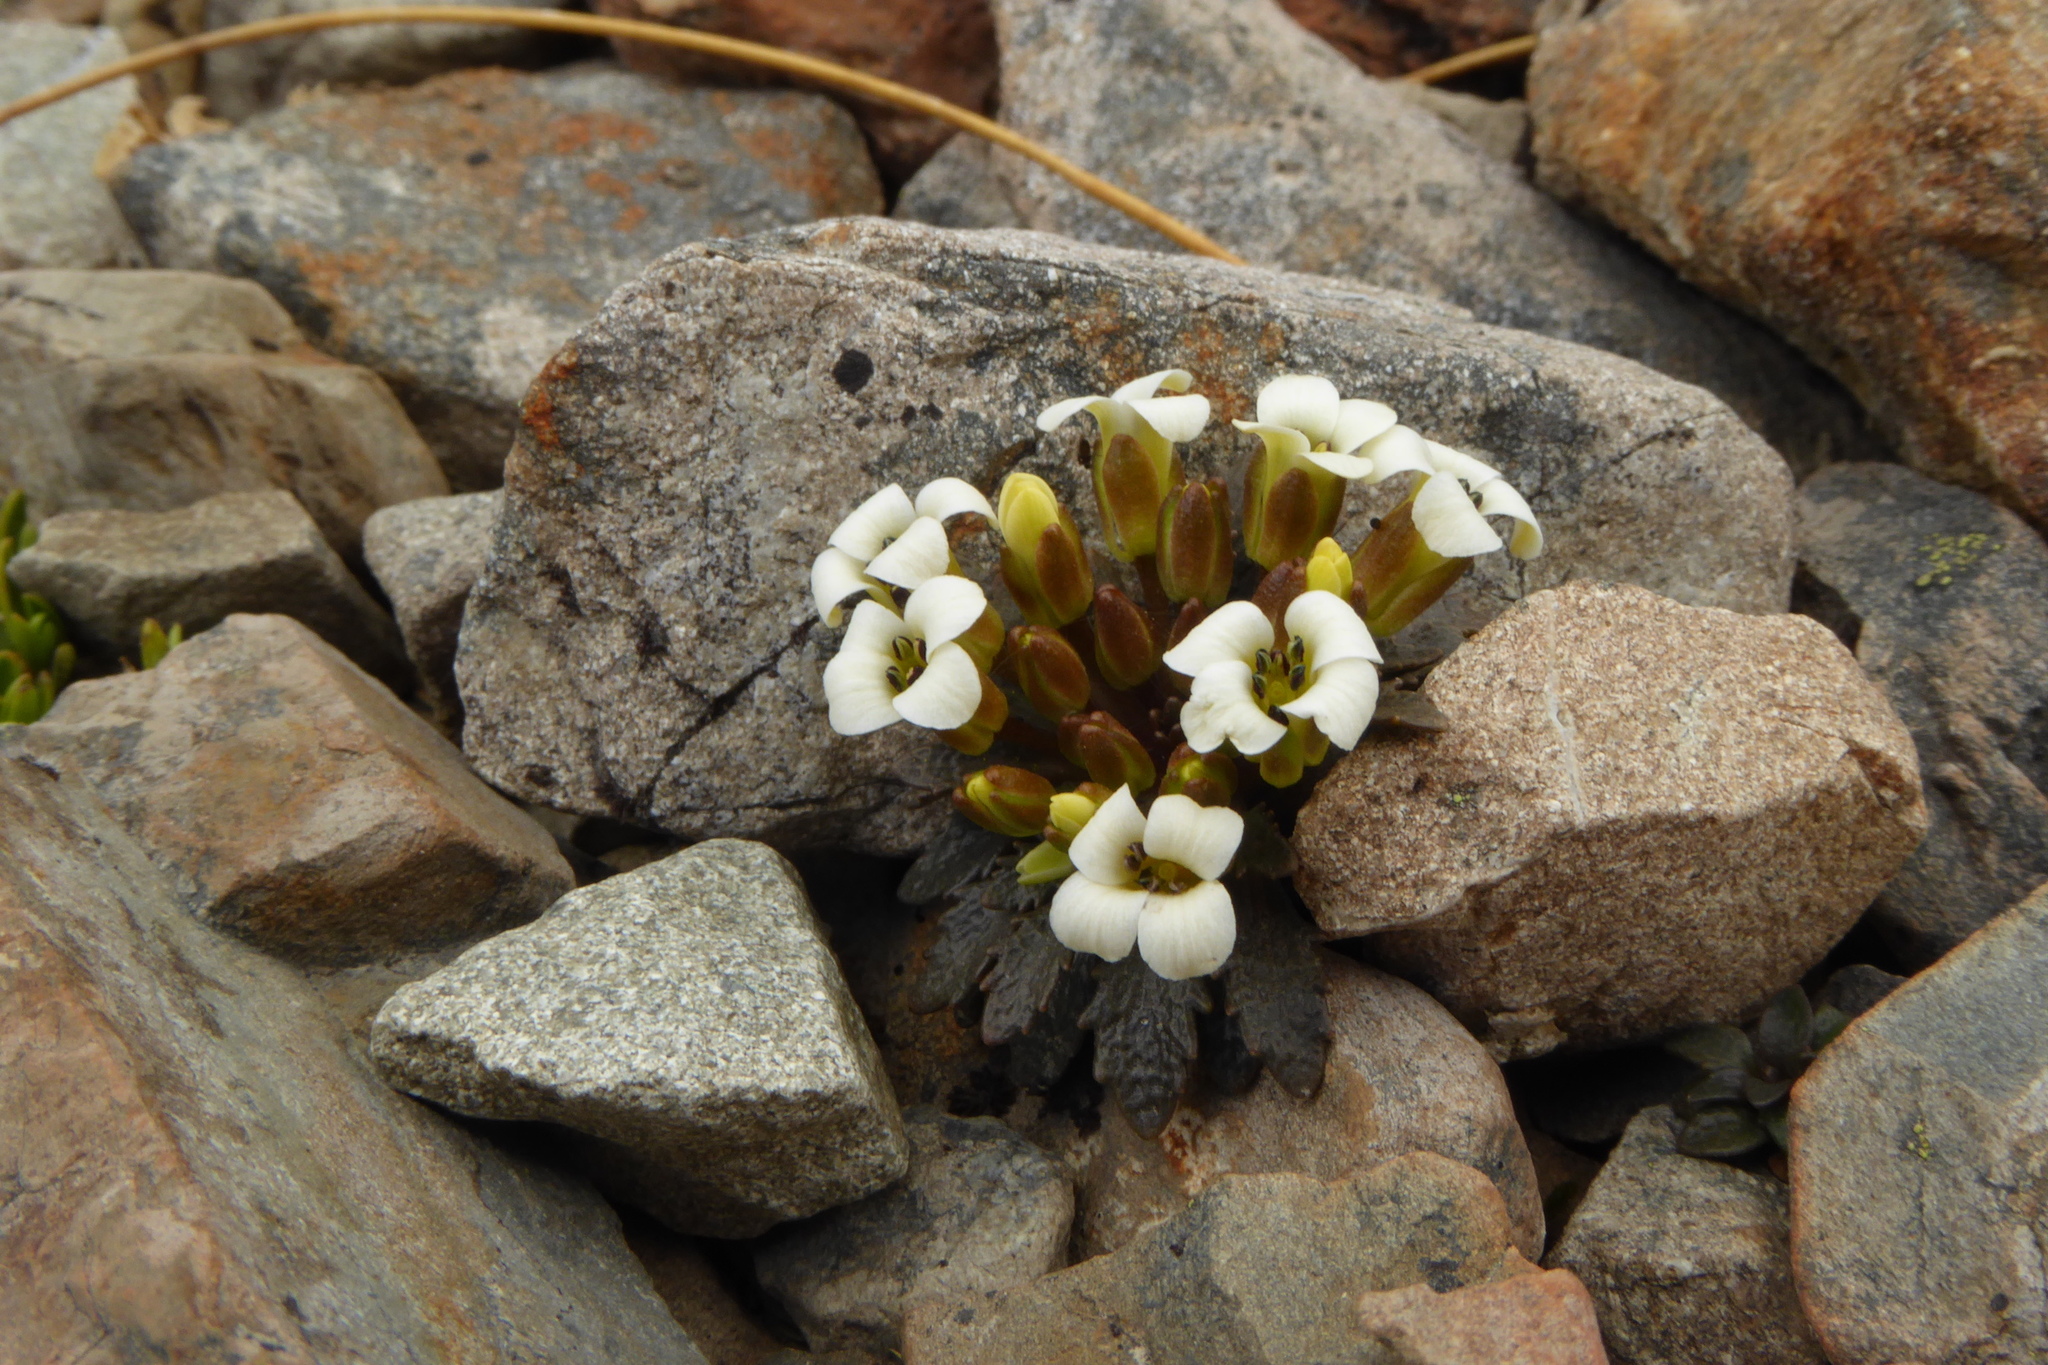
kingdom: Plantae
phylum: Tracheophyta
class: Magnoliopsida
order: Brassicales
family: Brassicaceae
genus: Notothlaspi
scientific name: Notothlaspi rosulatum
